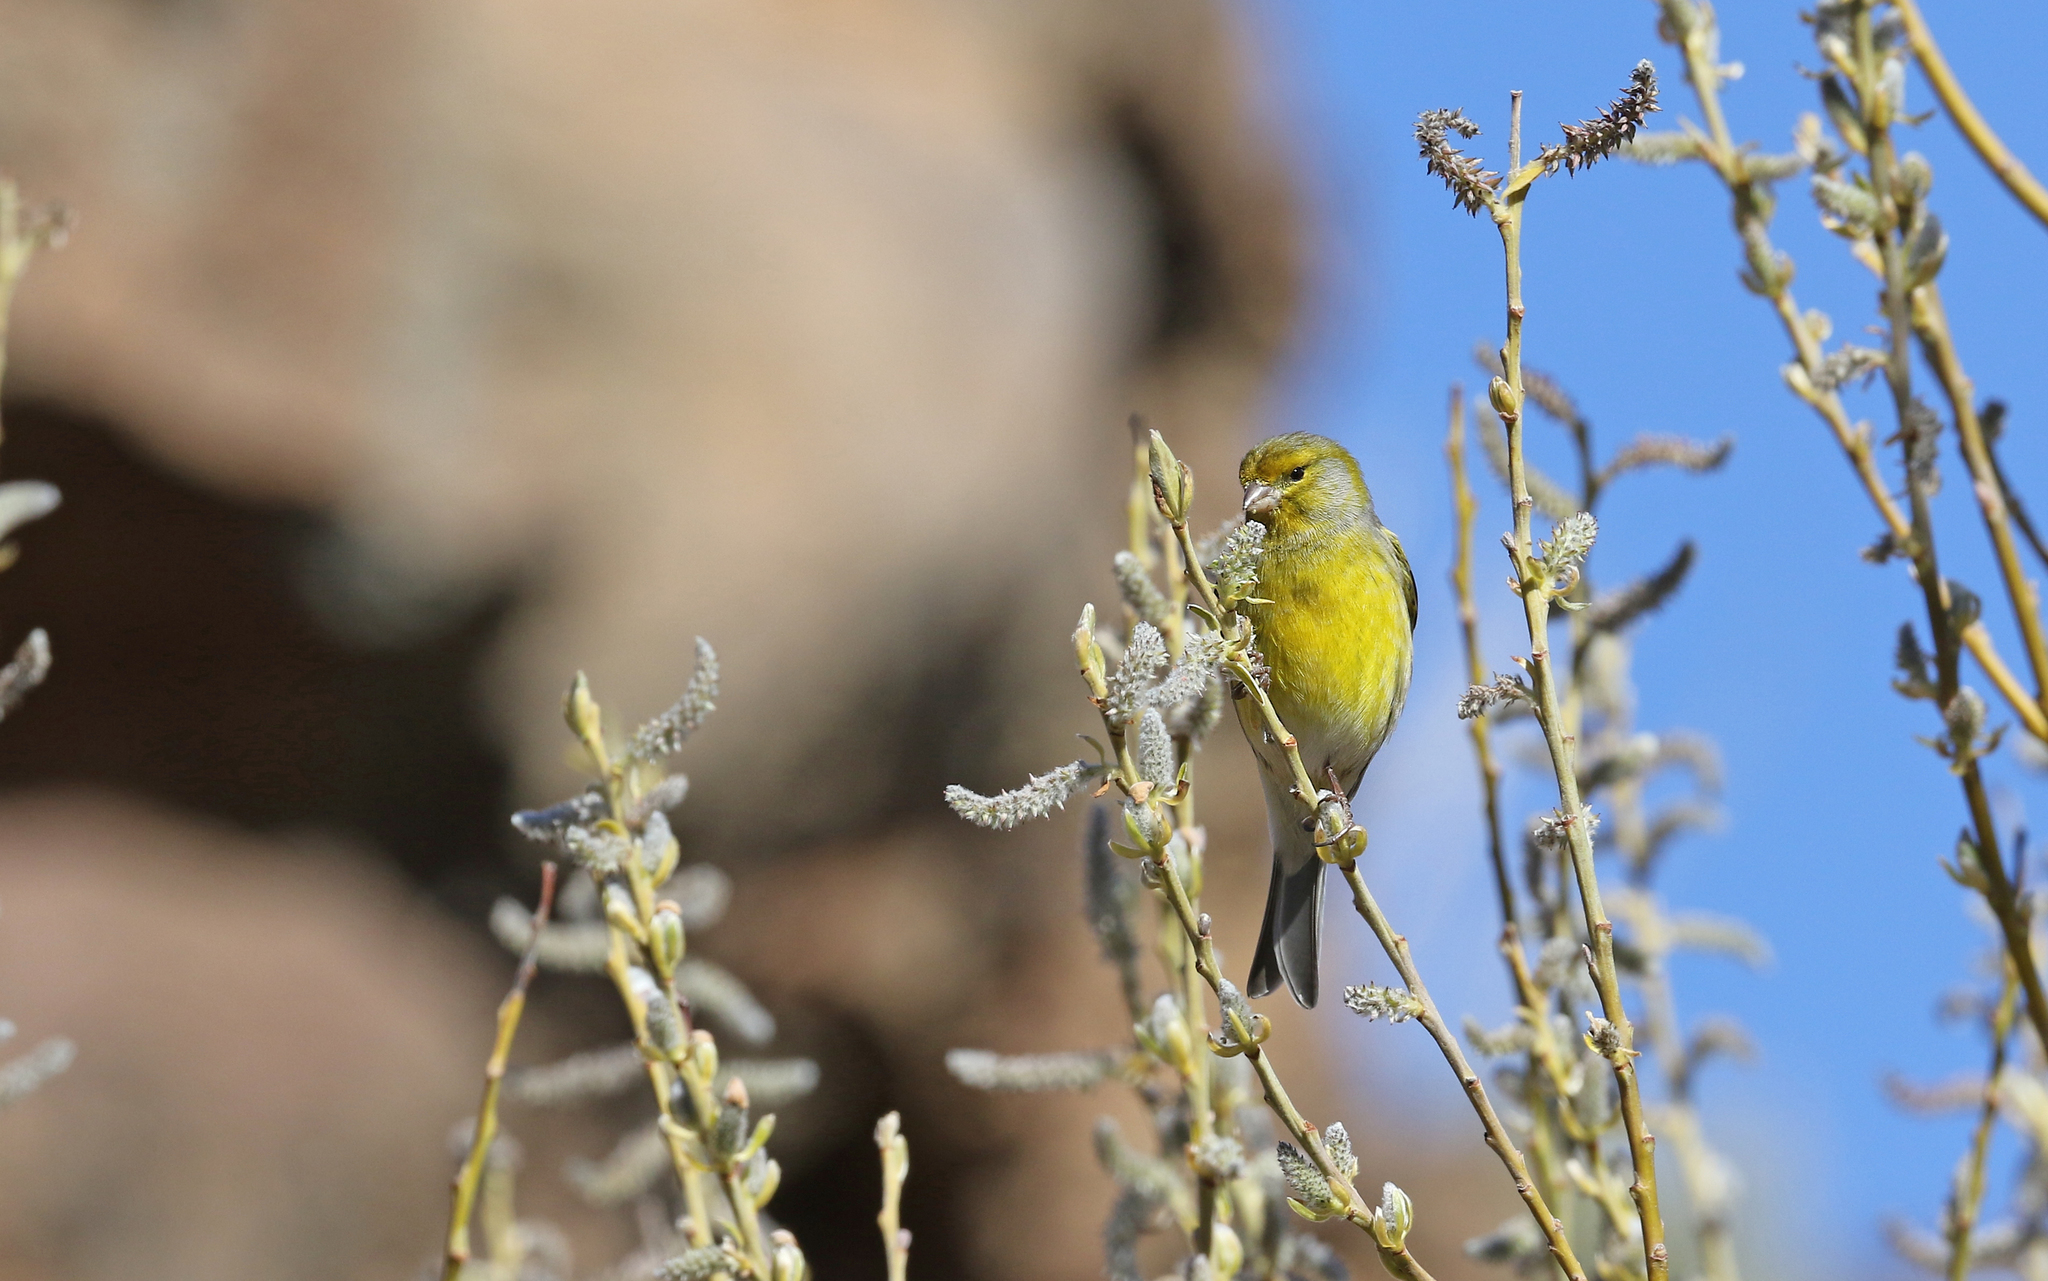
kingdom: Animalia
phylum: Chordata
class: Aves
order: Passeriformes
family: Fringillidae
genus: Serinus
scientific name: Serinus canaria
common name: Atlantic canary
